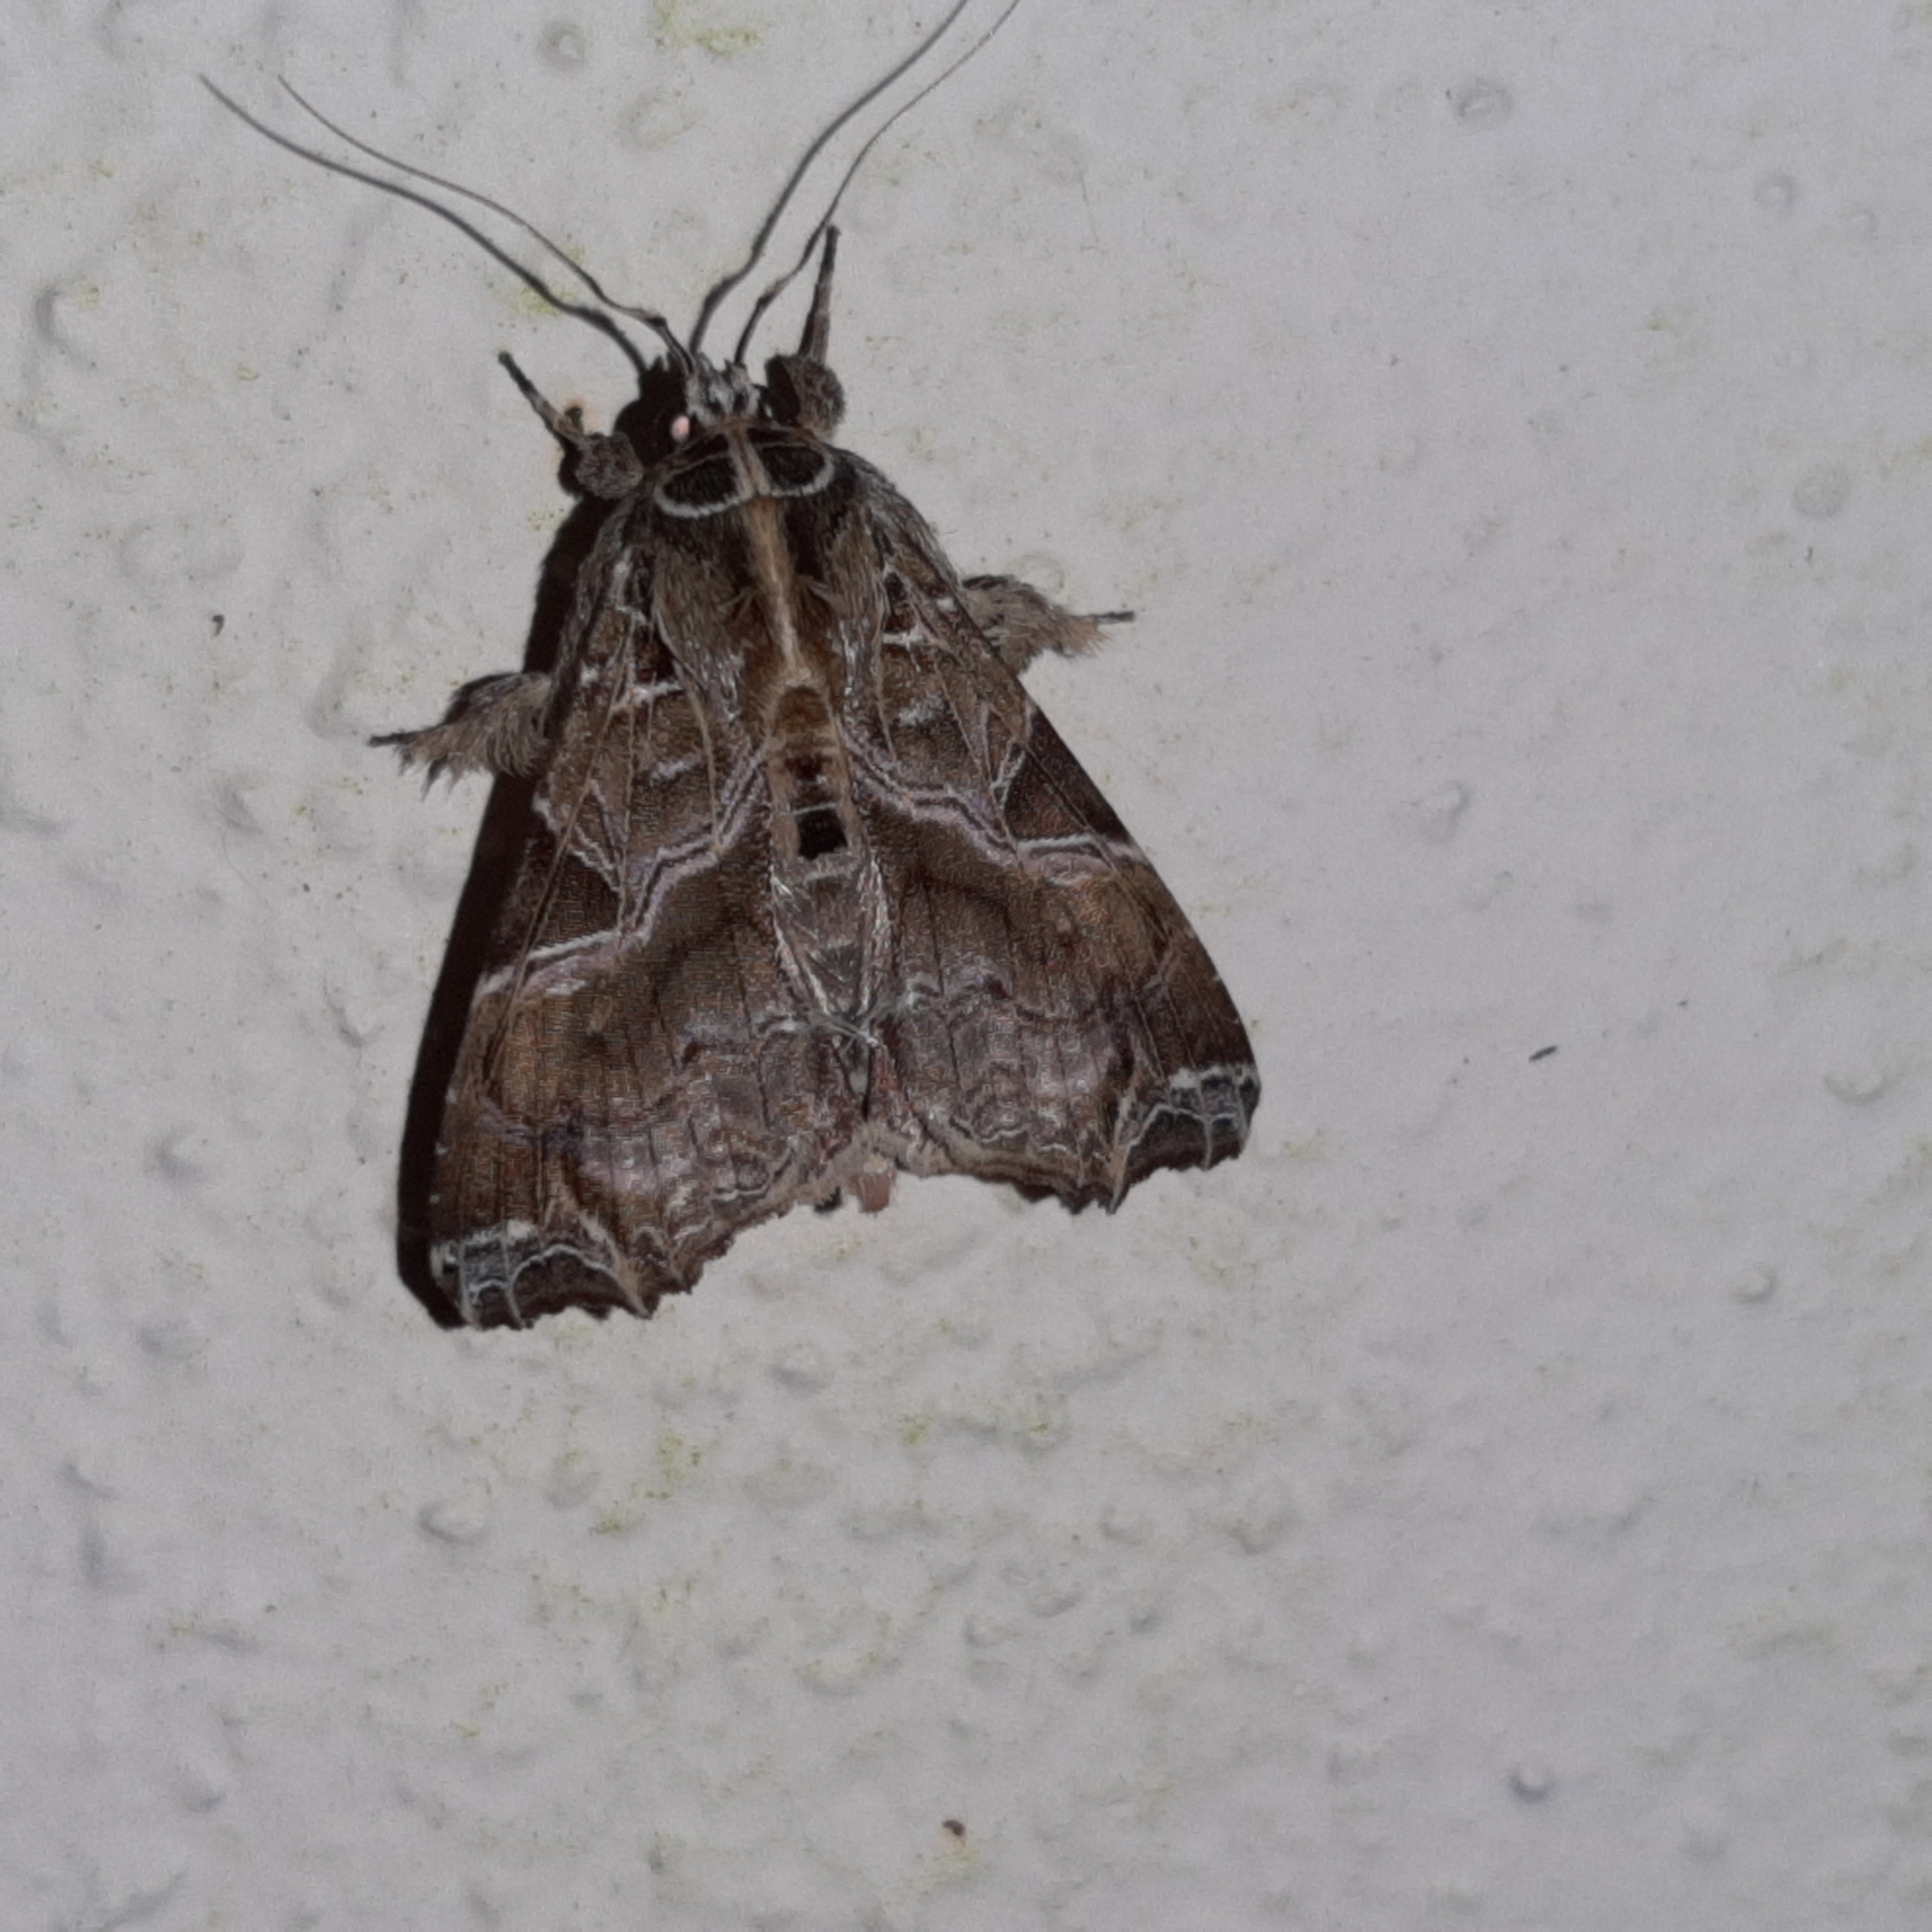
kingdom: Animalia
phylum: Arthropoda
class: Insecta
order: Lepidoptera
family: Noctuidae
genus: Callopistria
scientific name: Callopistria floridensis
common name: Florida fern moth
